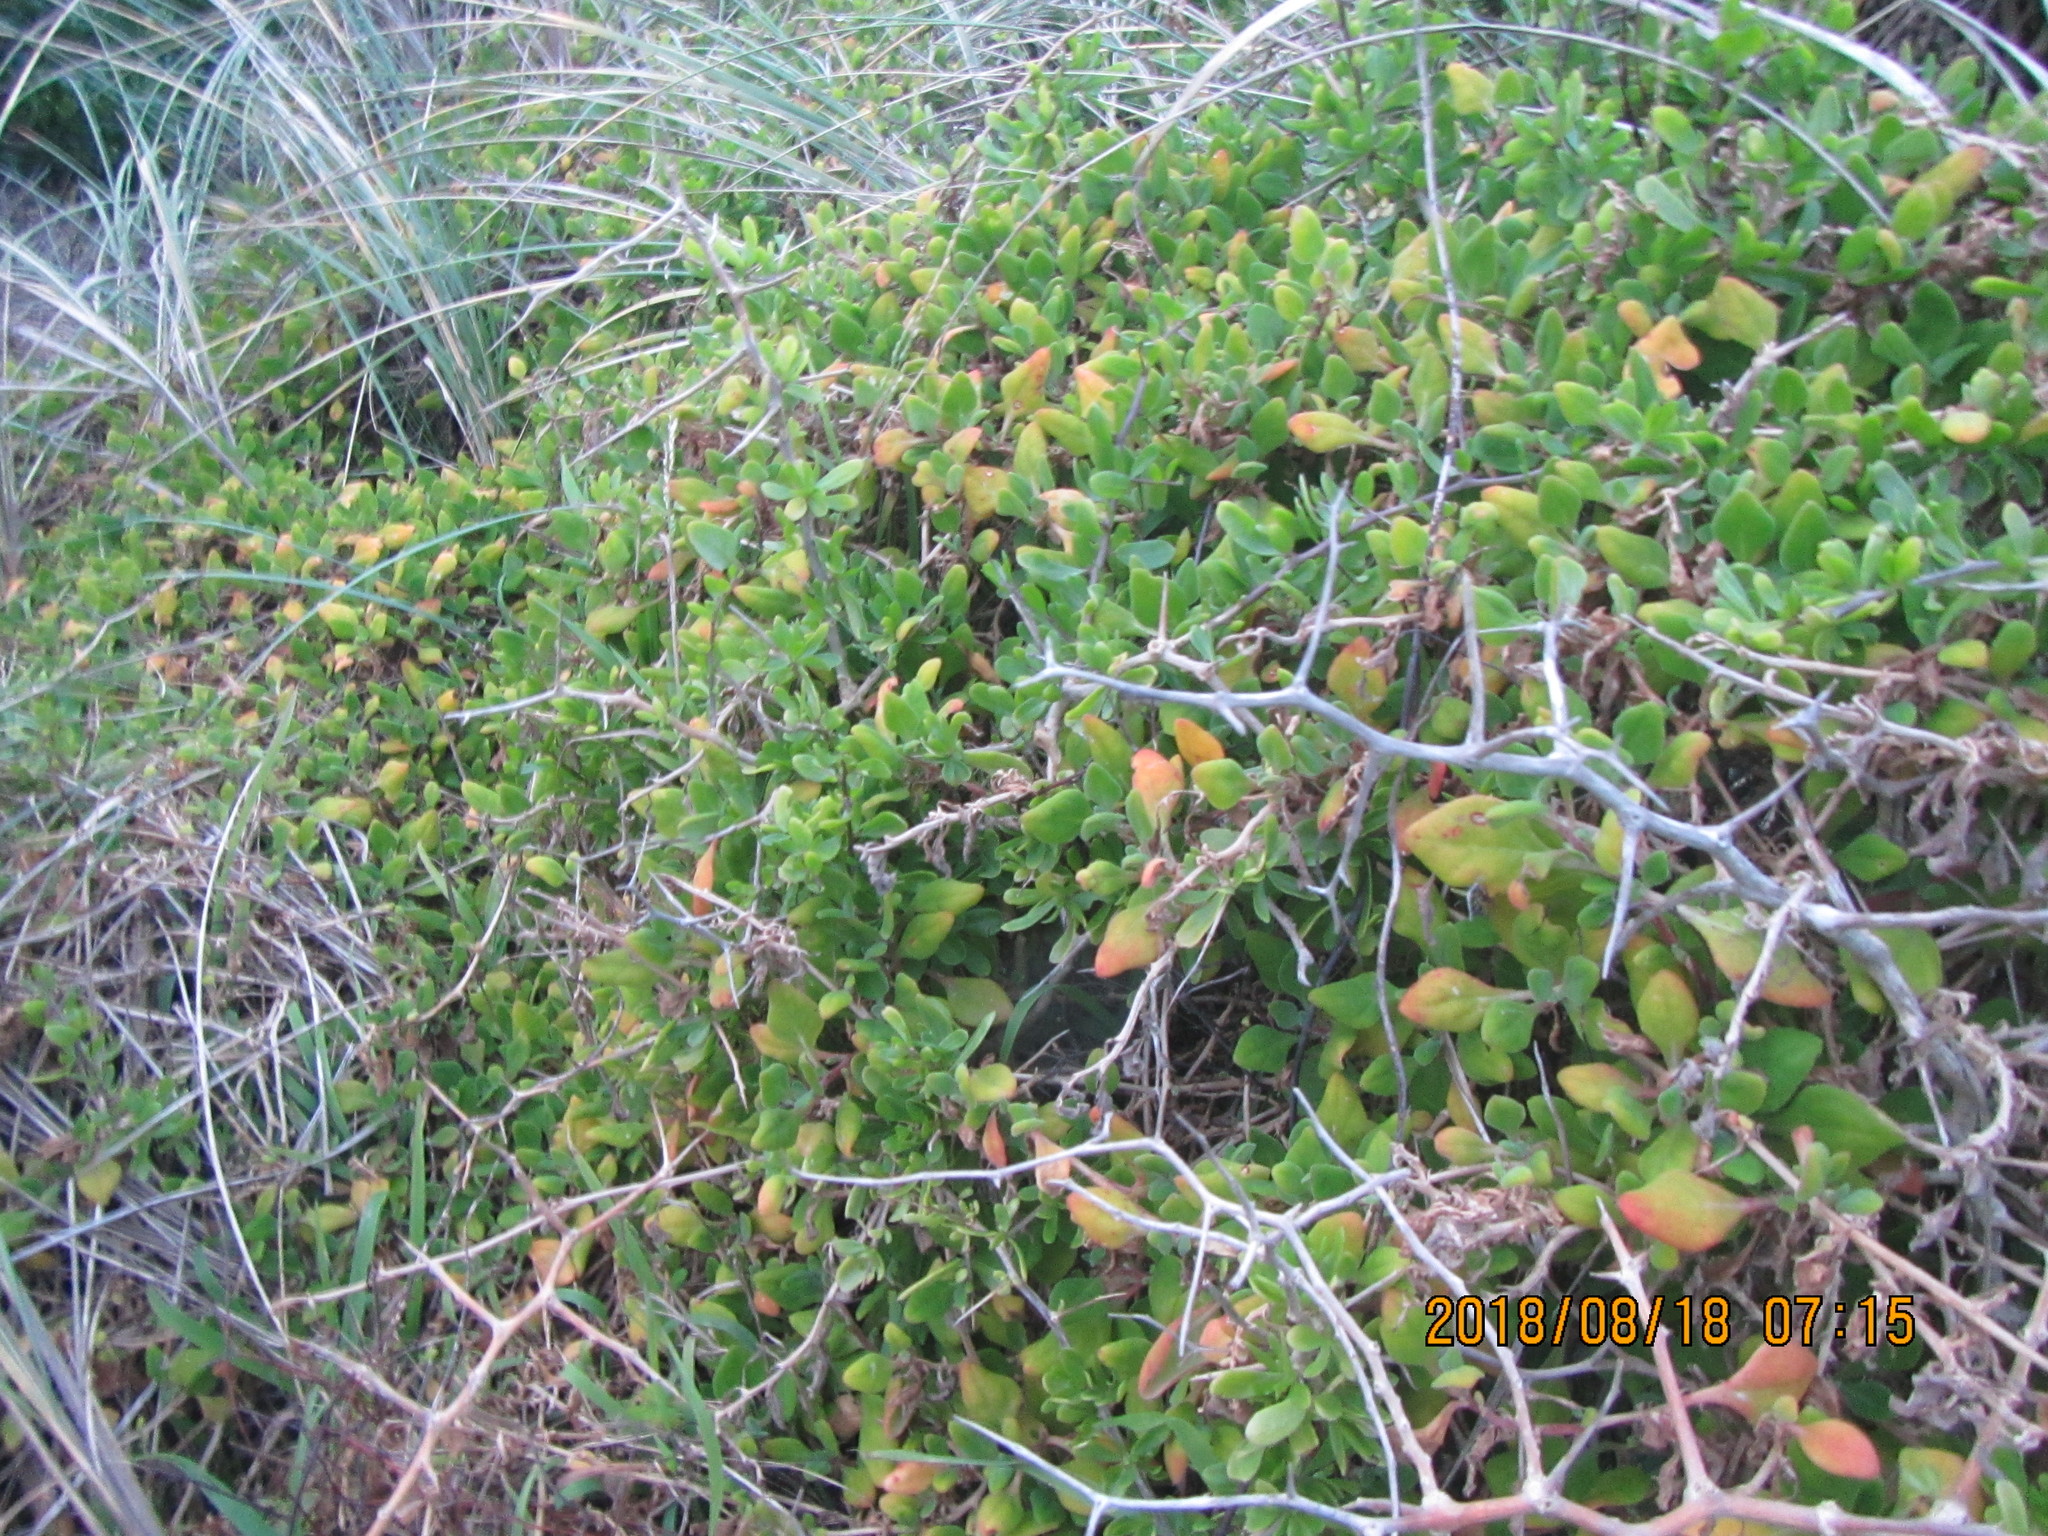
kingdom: Plantae
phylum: Tracheophyta
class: Magnoliopsida
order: Caryophyllales
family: Aizoaceae
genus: Tetragonia
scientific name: Tetragonia implexicoma
